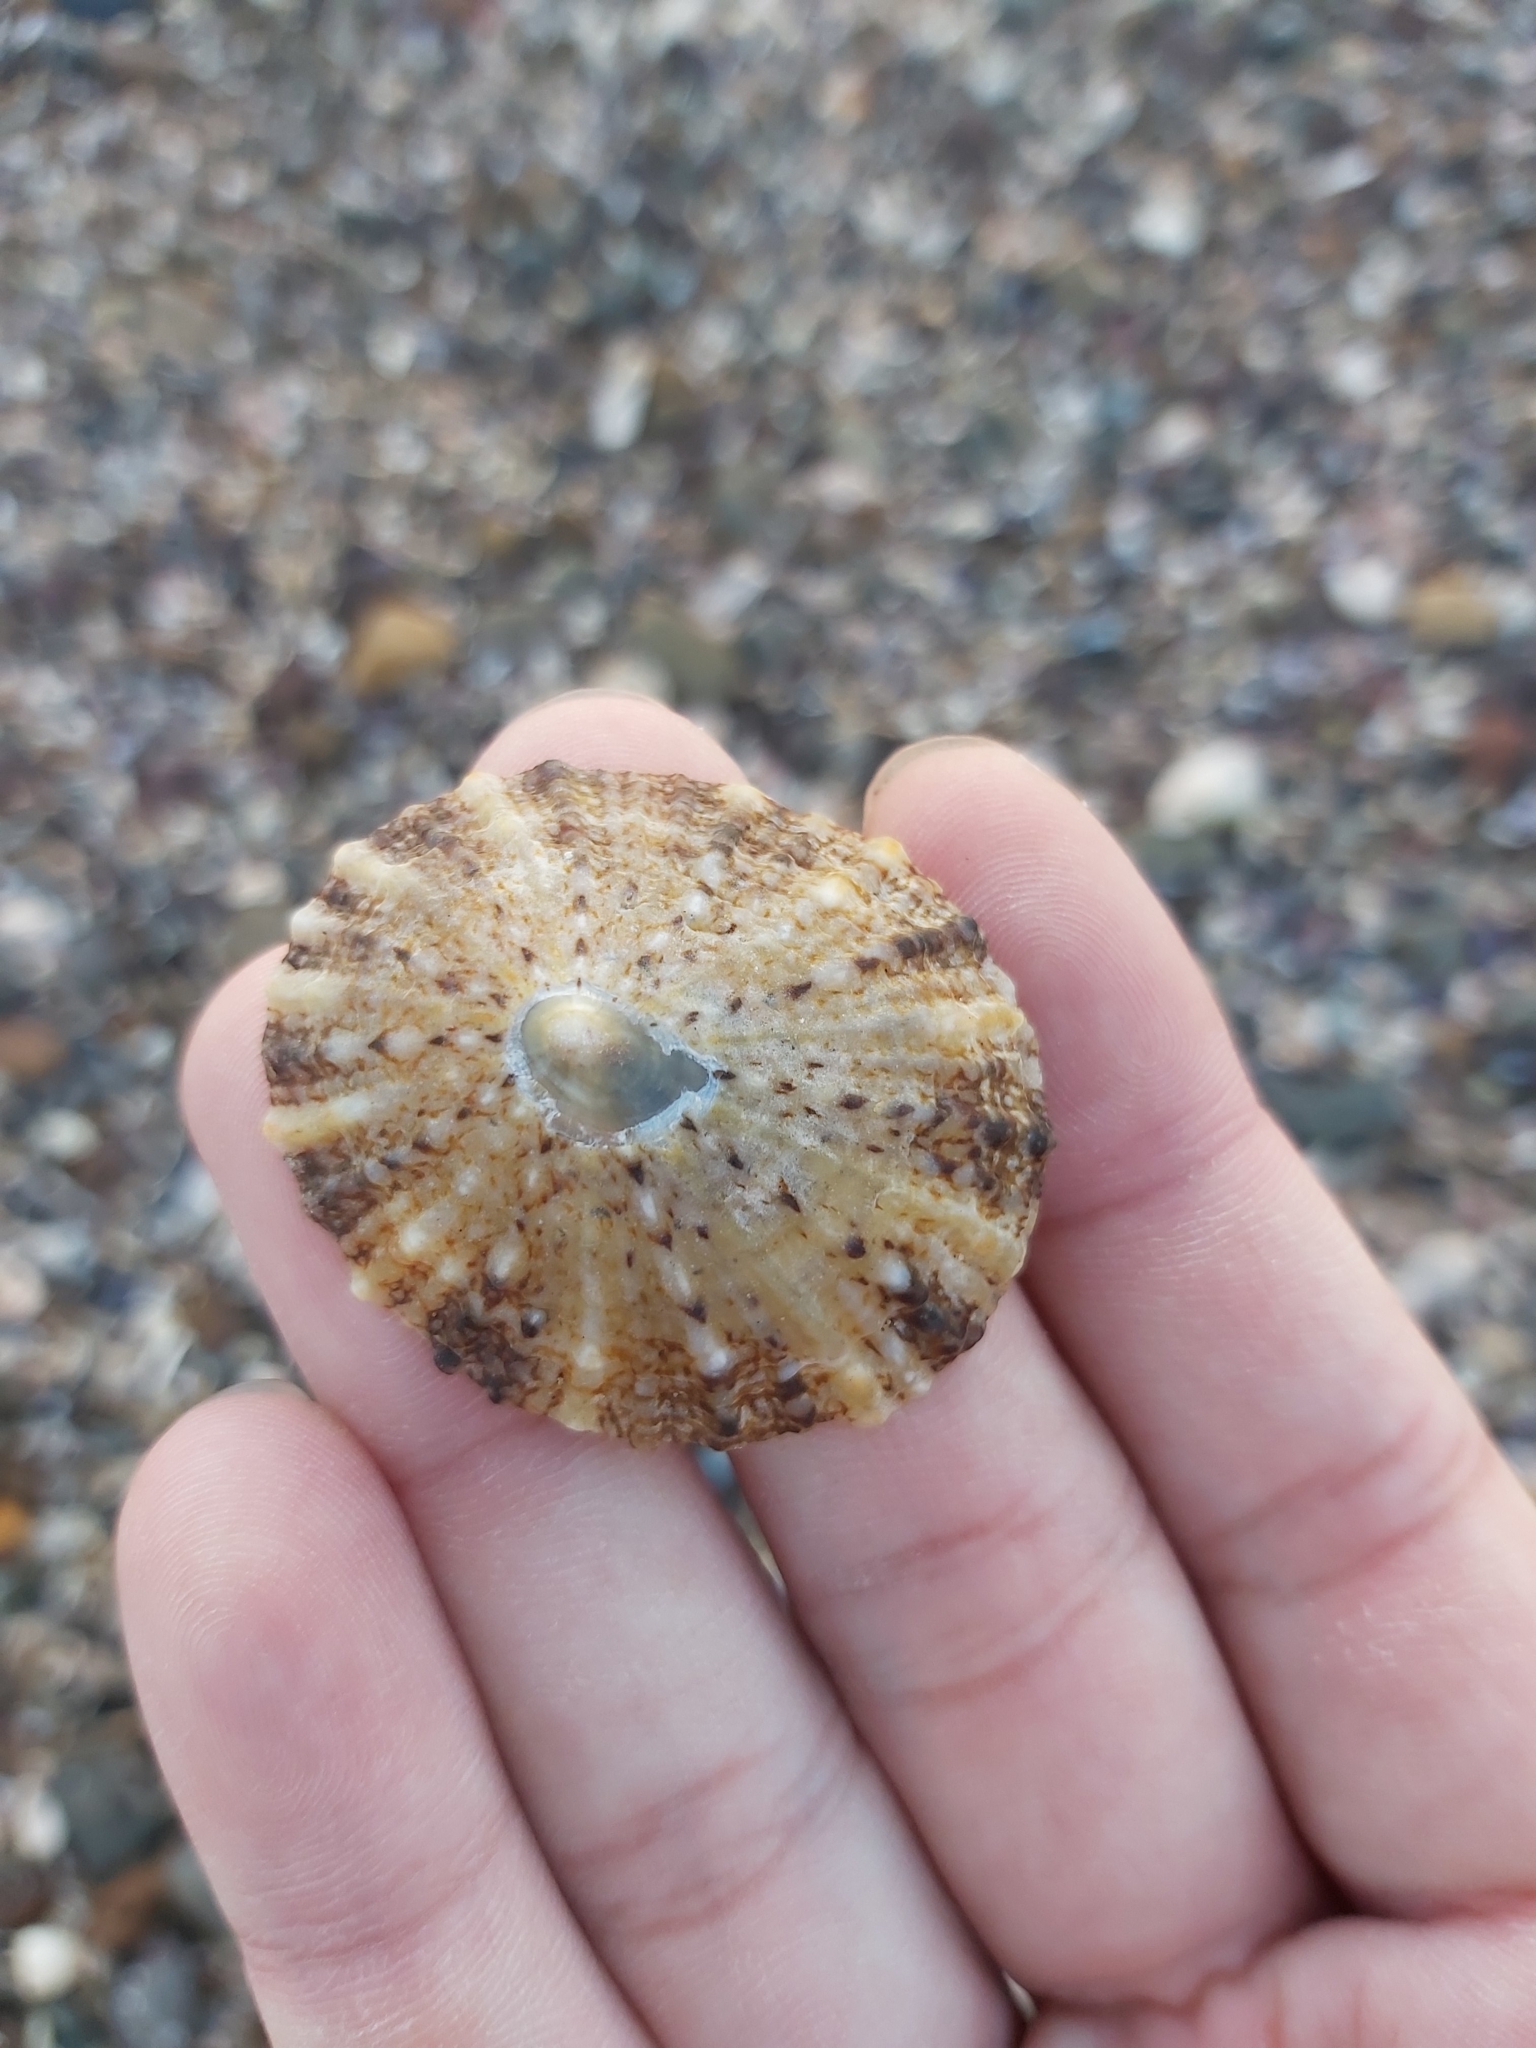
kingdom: Animalia
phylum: Mollusca
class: Gastropoda
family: Nacellidae
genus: Cellana
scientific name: Cellana tramoserica
